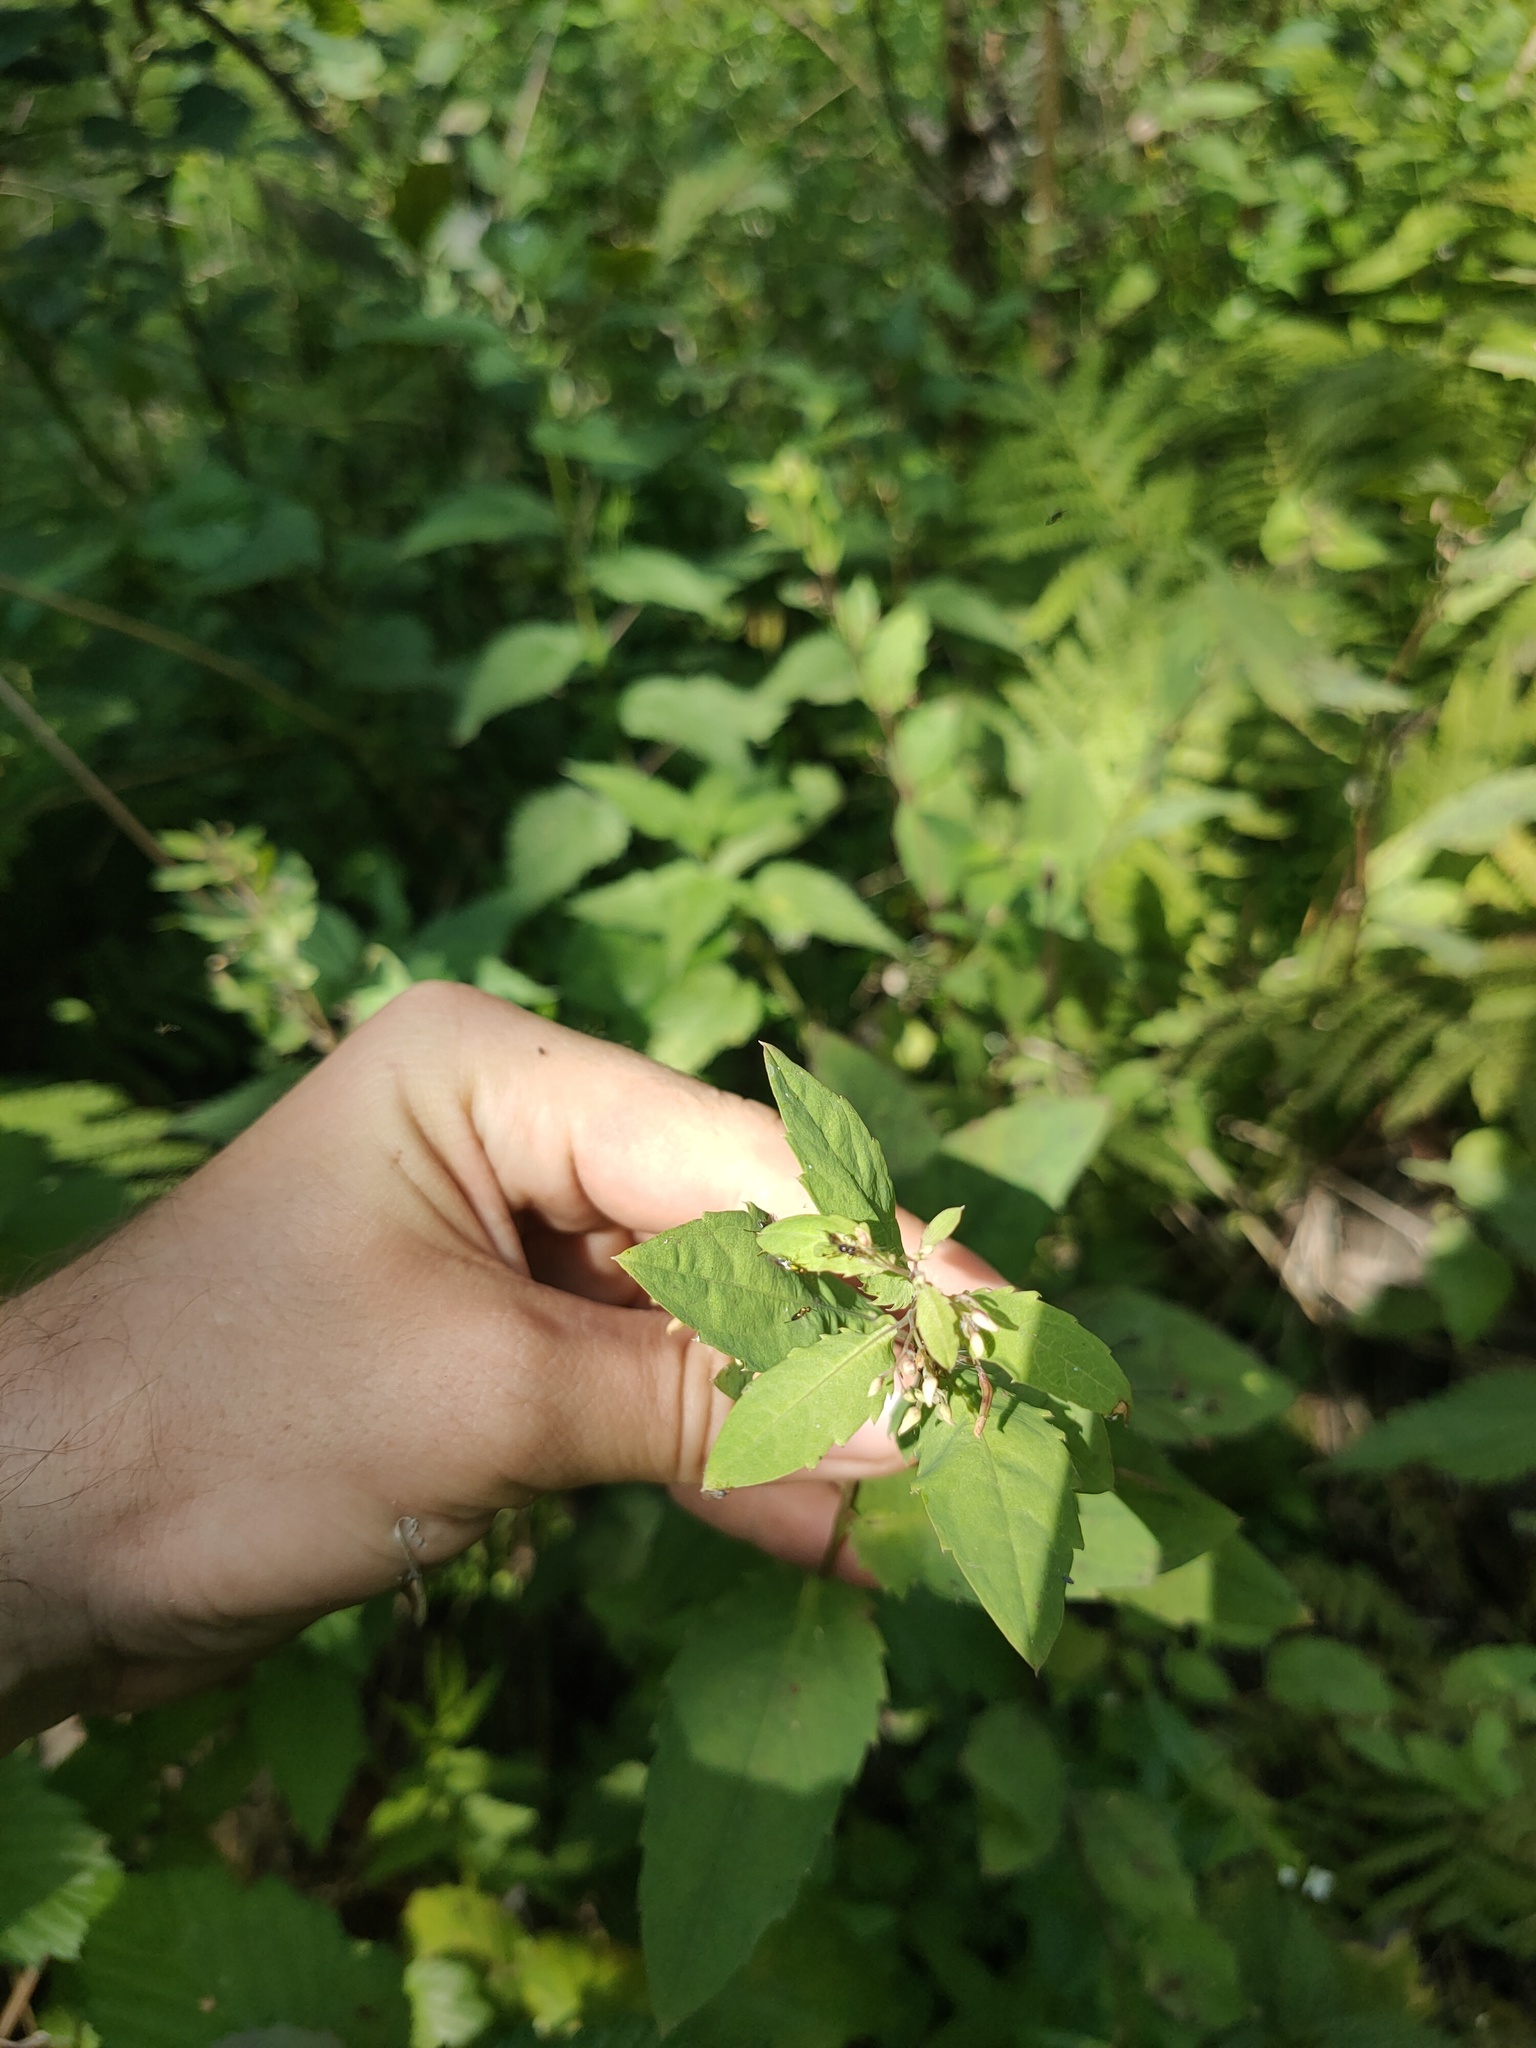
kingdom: Plantae
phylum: Tracheophyta
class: Magnoliopsida
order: Ericales
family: Balsaminaceae
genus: Impatiens
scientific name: Impatiens noli-tangere
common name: Touch-me-not balsam
